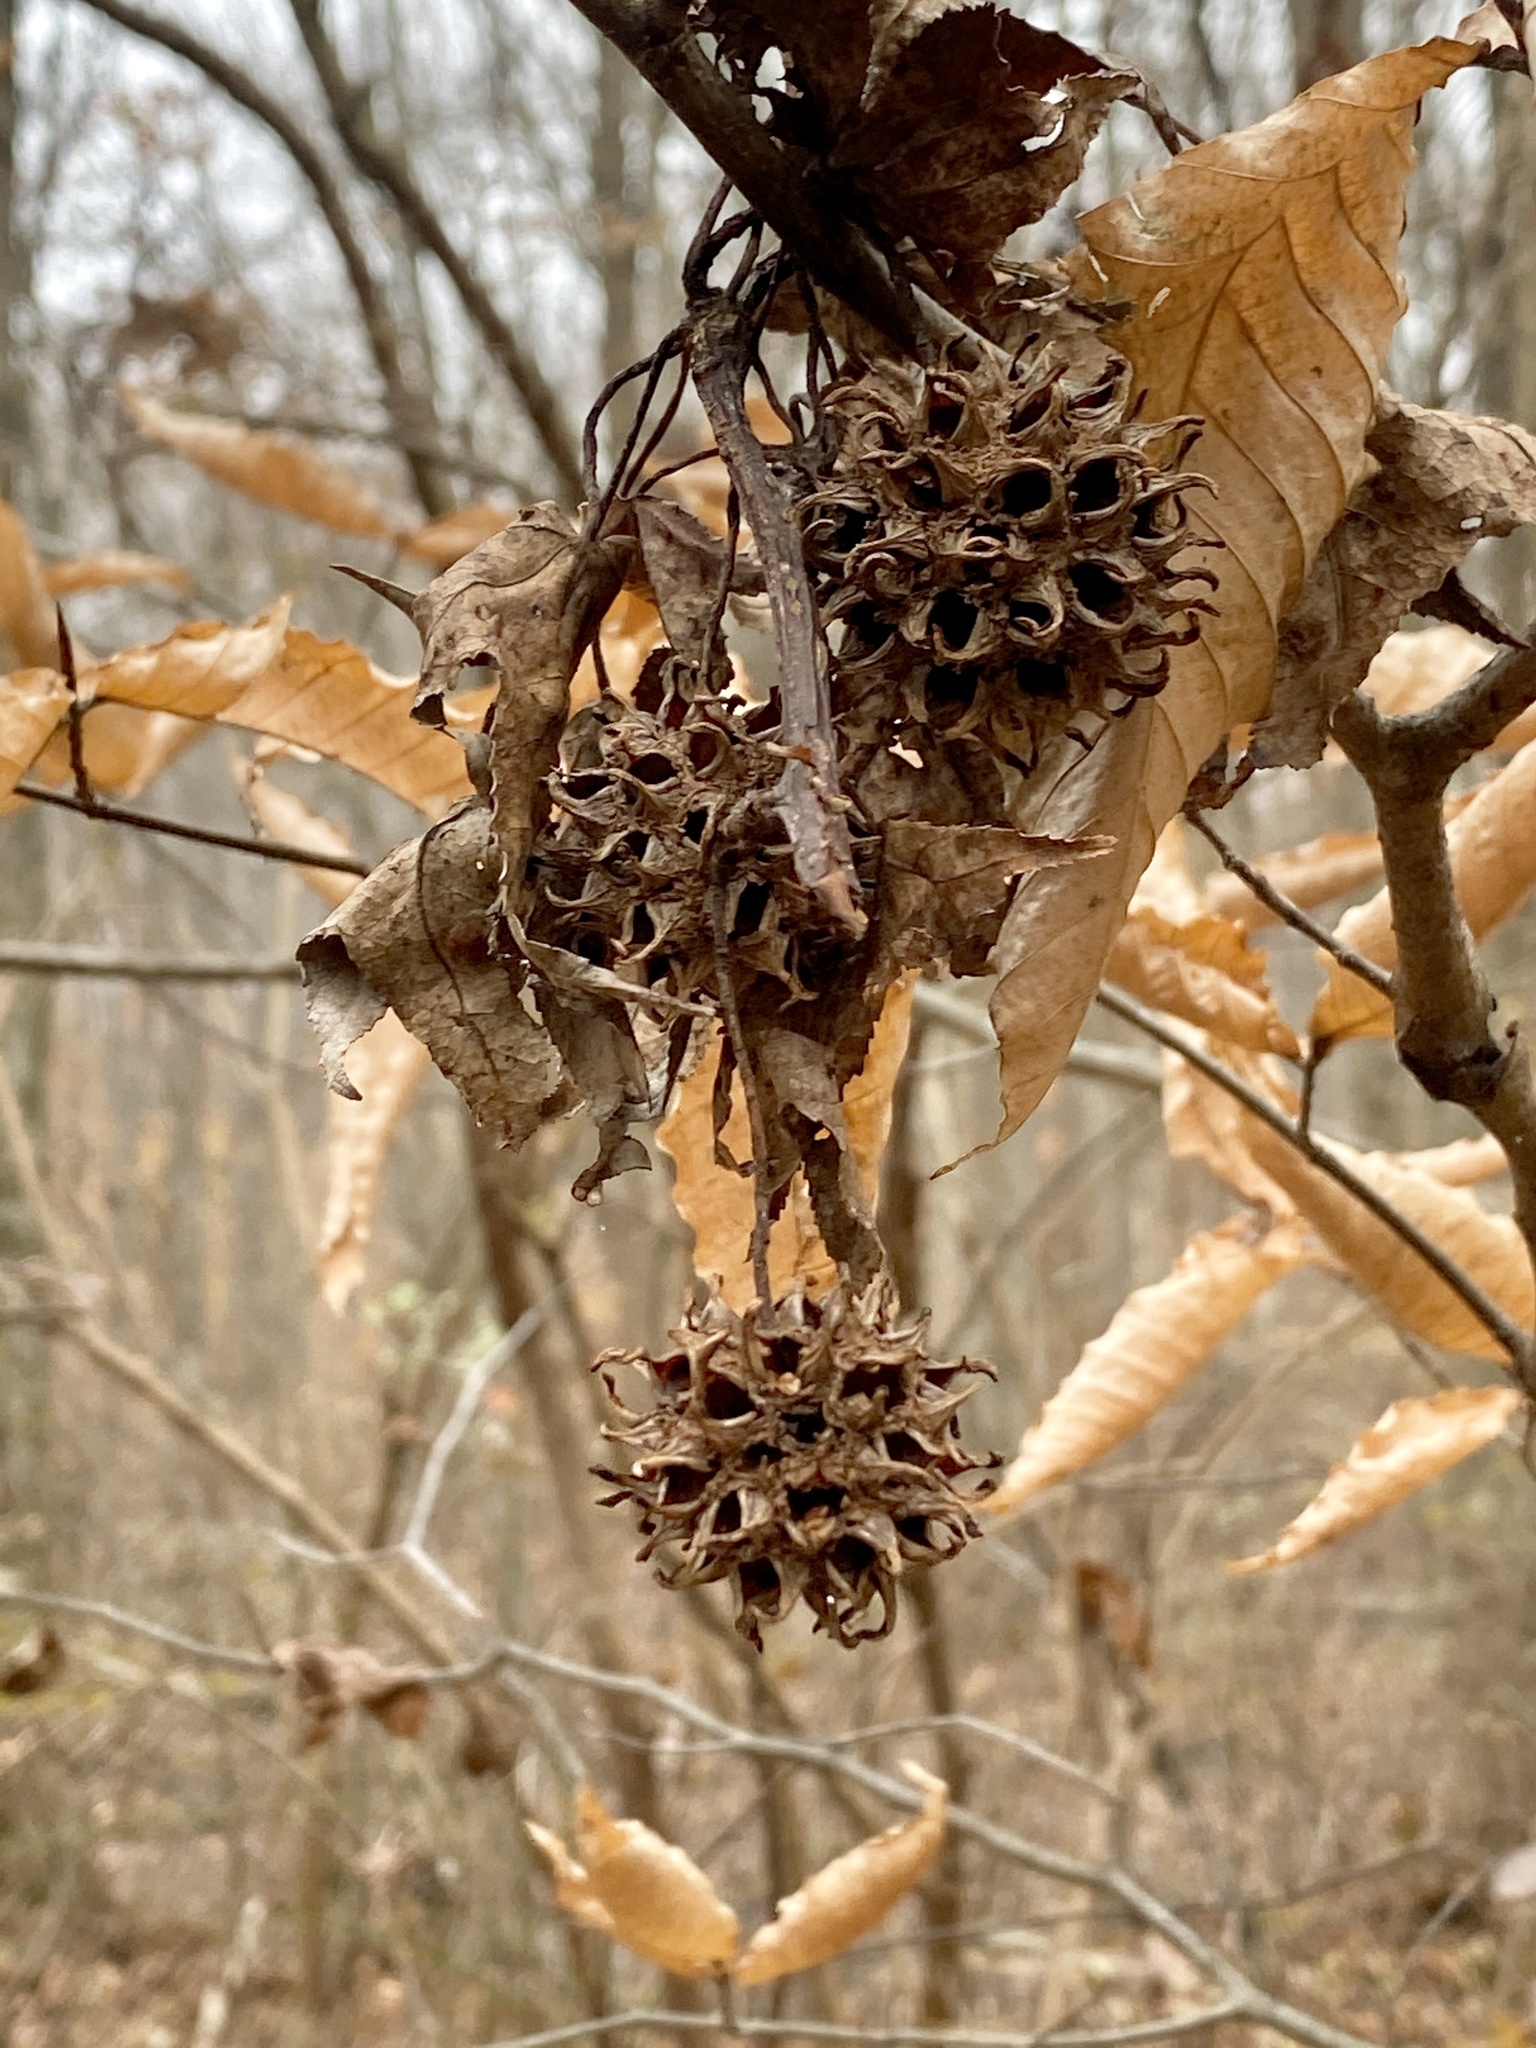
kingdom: Plantae
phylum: Tracheophyta
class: Magnoliopsida
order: Saxifragales
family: Altingiaceae
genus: Liquidambar
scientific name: Liquidambar styraciflua
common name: Sweet gum
